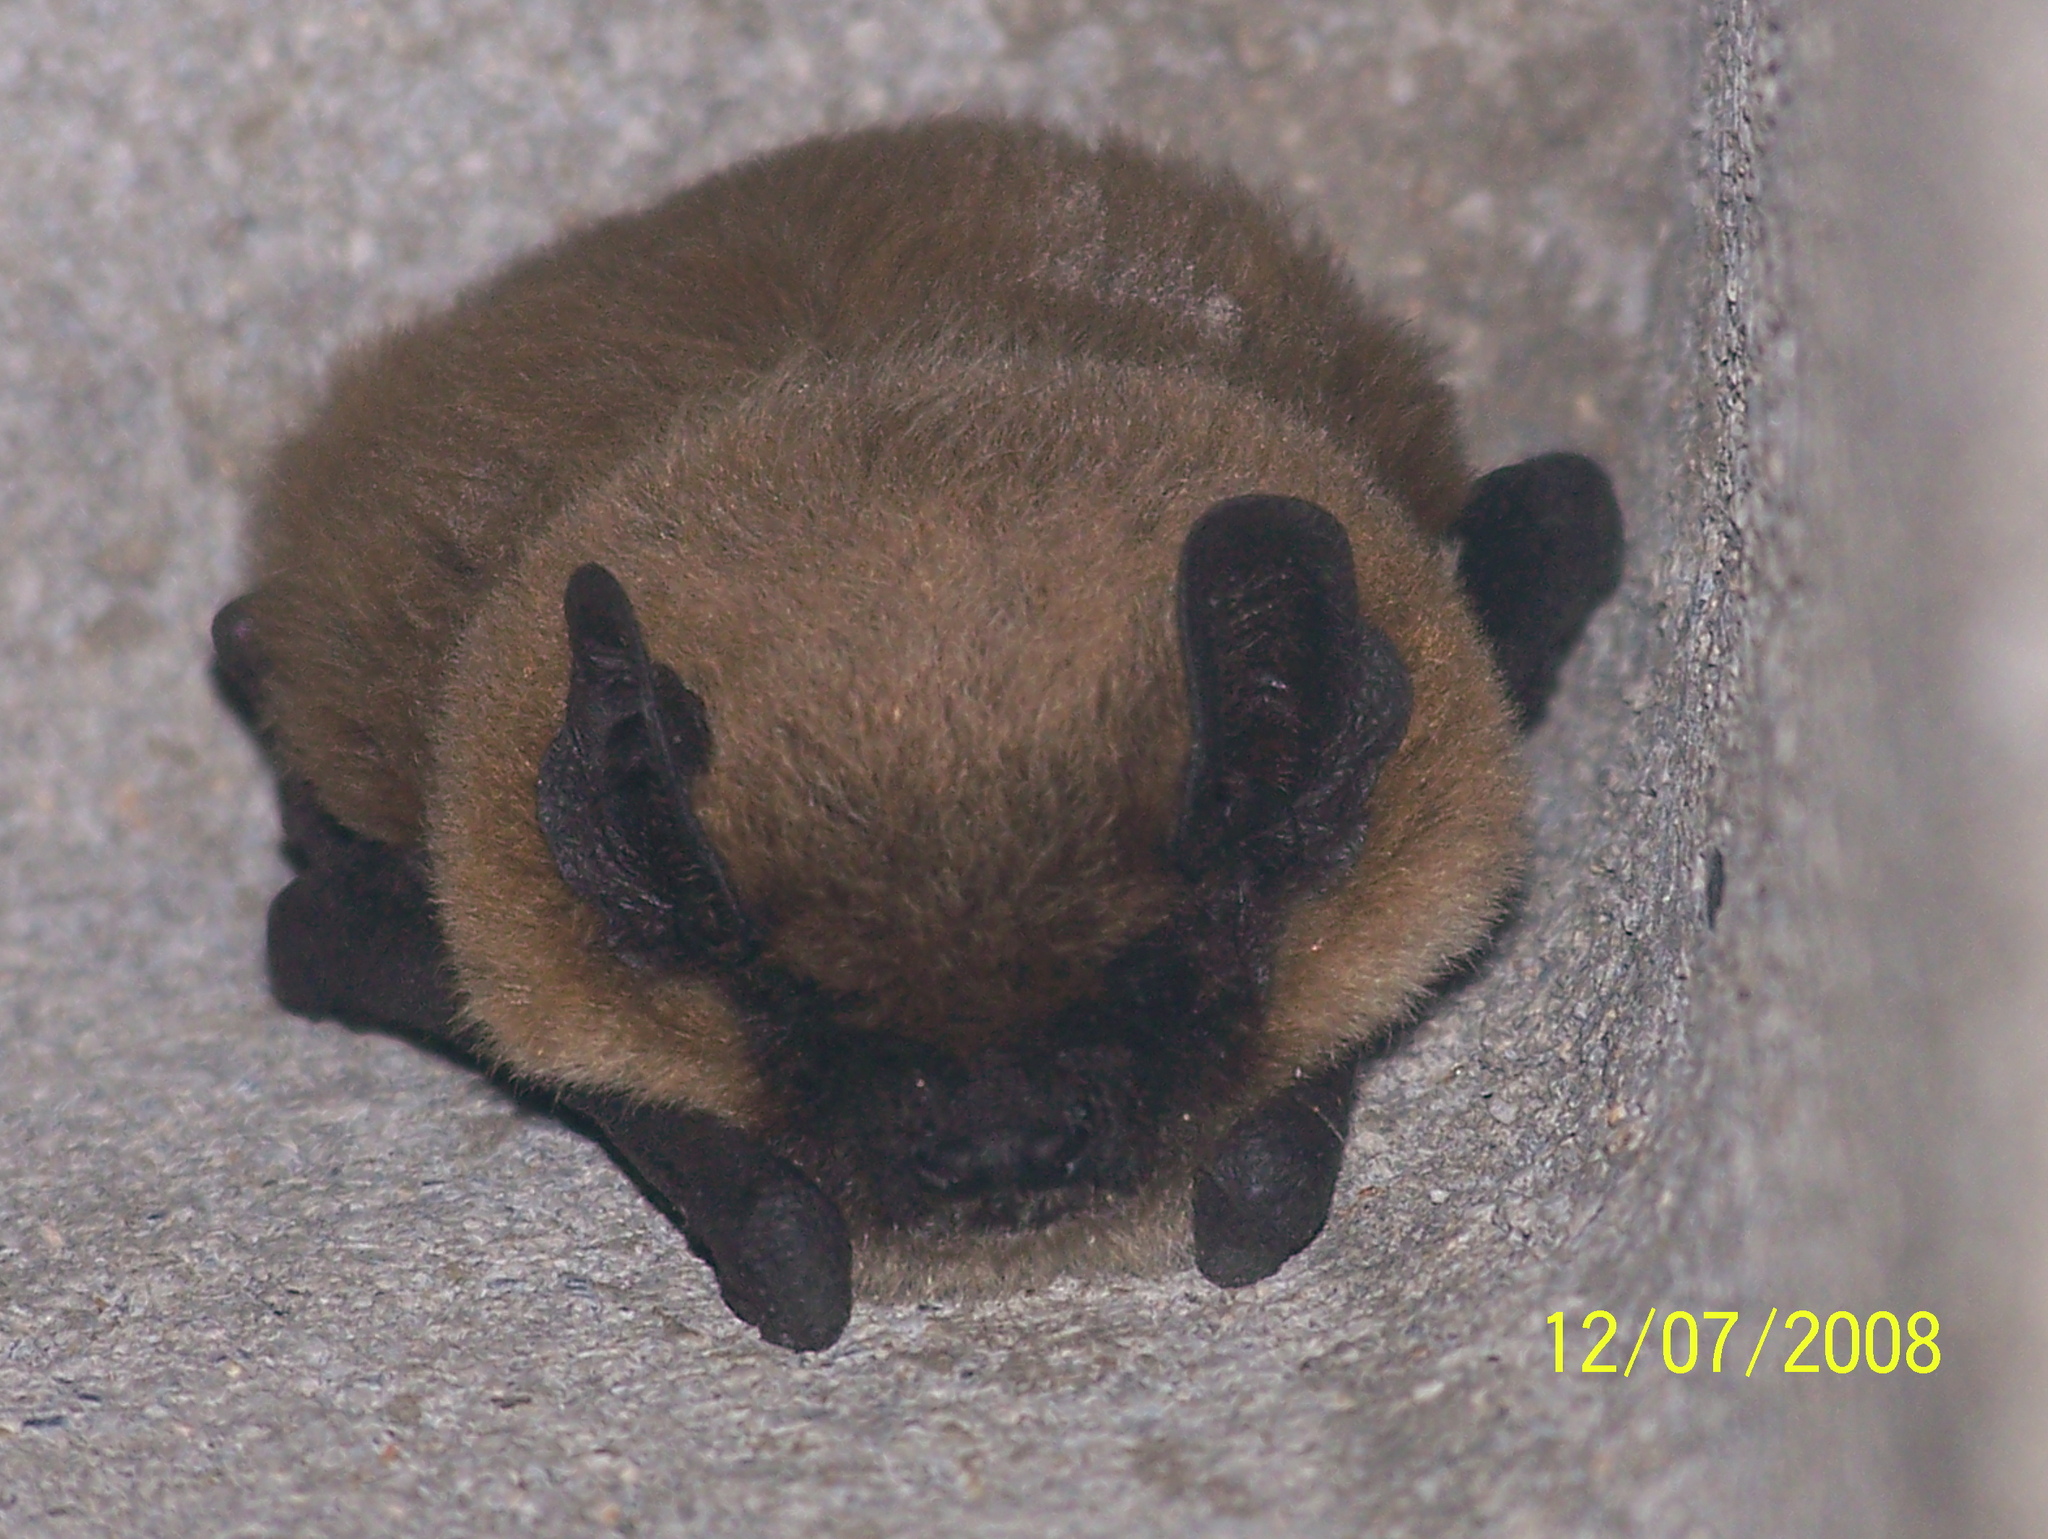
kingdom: Animalia
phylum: Chordata
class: Mammalia
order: Chiroptera
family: Vespertilionidae
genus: Eptesicus
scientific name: Eptesicus isabellinus
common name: Meridional serotine
